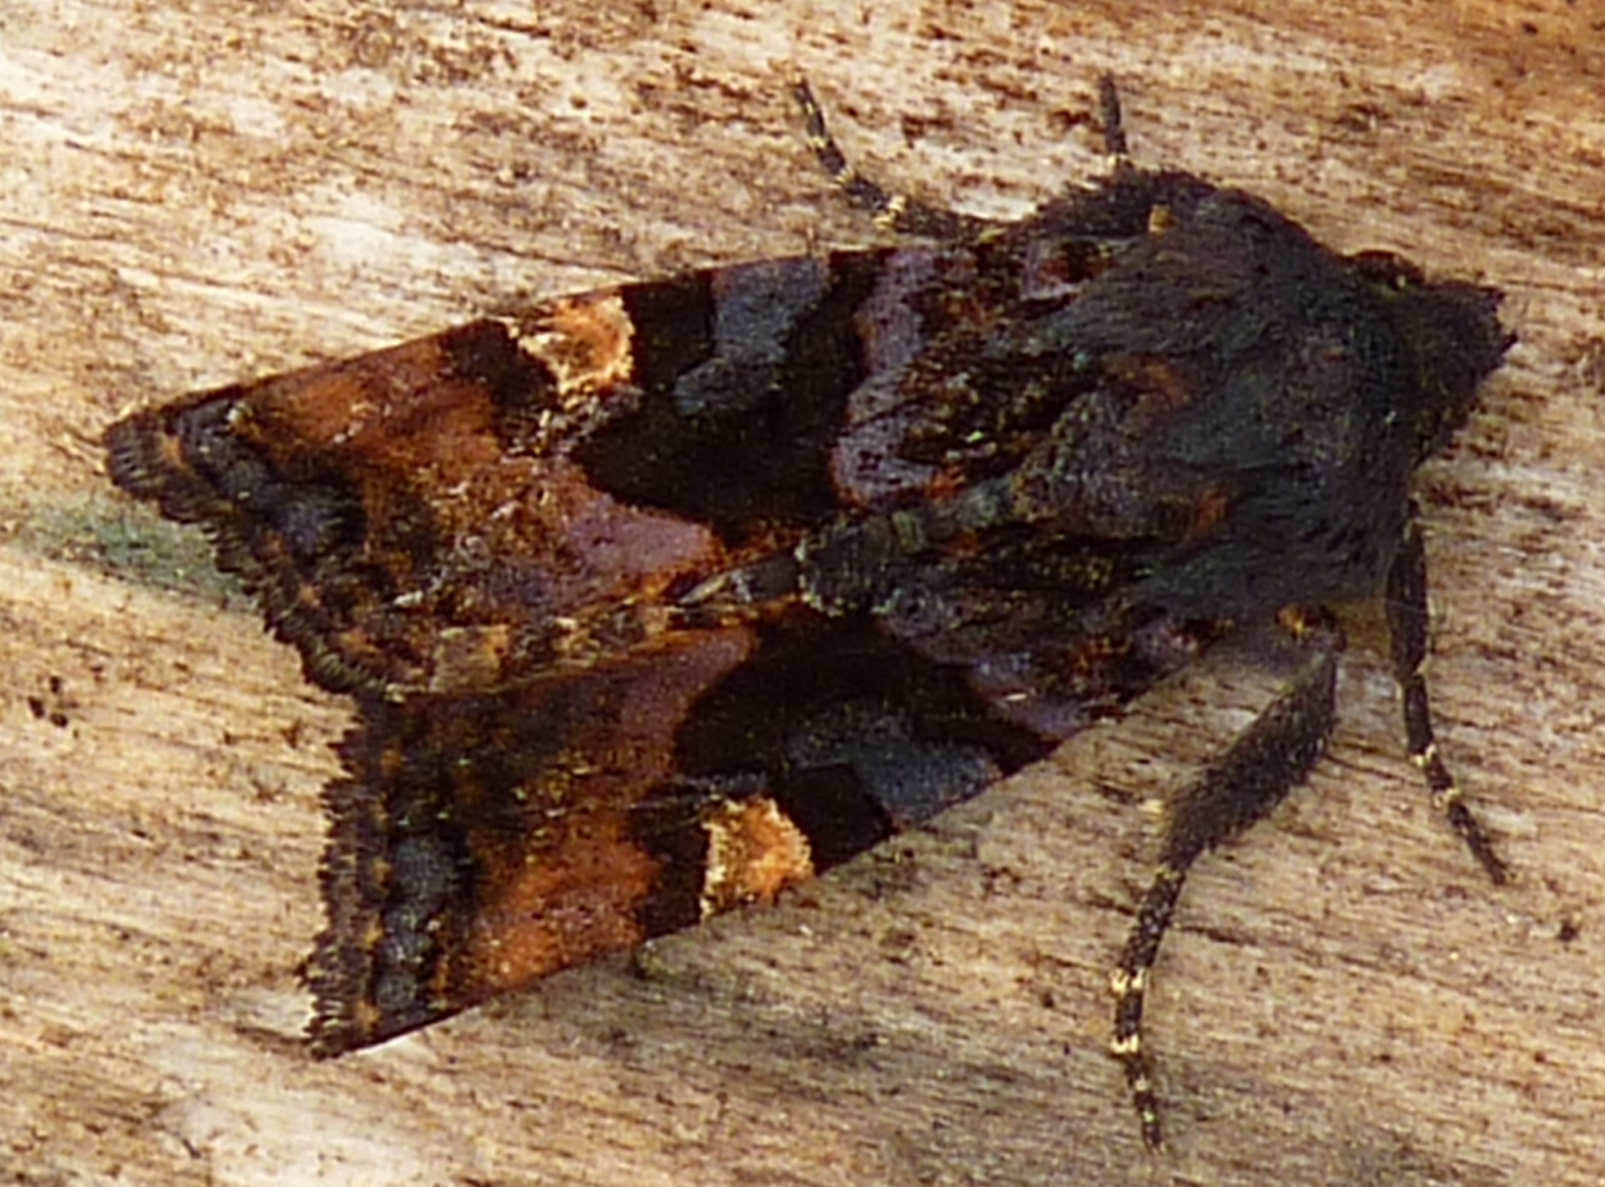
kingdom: Animalia
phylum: Arthropoda
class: Insecta
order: Lepidoptera
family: Noctuidae
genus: Euplexia
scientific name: Euplexia benesimilis
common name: American angle shades
